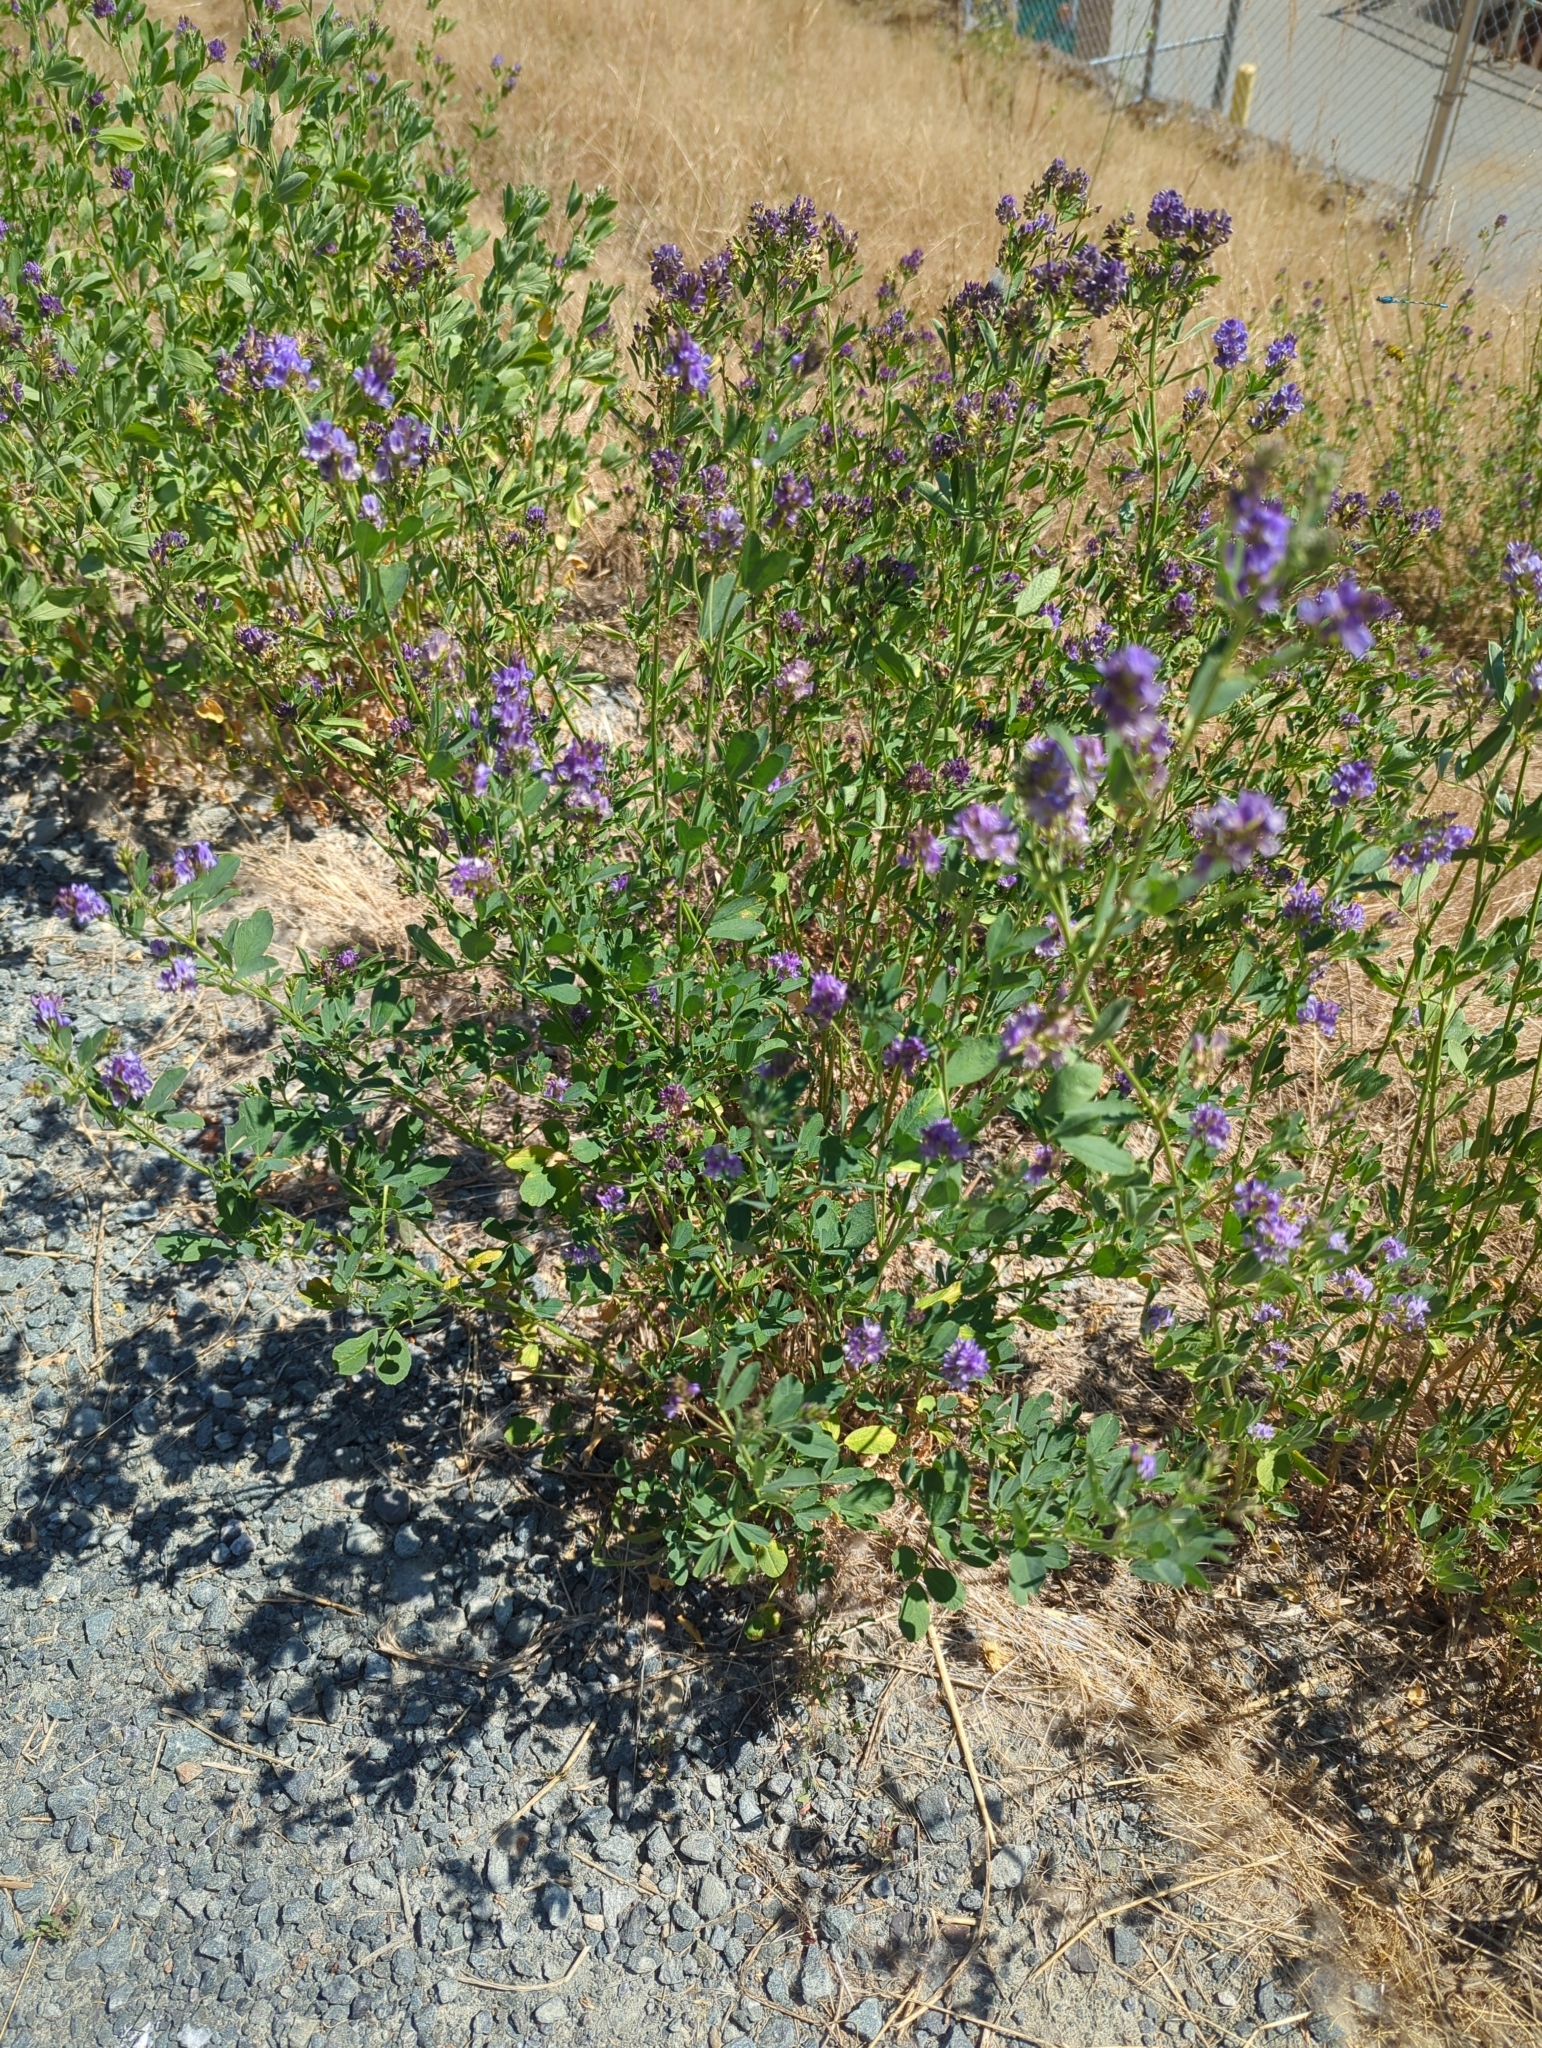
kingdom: Plantae
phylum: Tracheophyta
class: Magnoliopsida
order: Fabales
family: Fabaceae
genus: Medicago
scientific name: Medicago sativa
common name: Alfalfa
